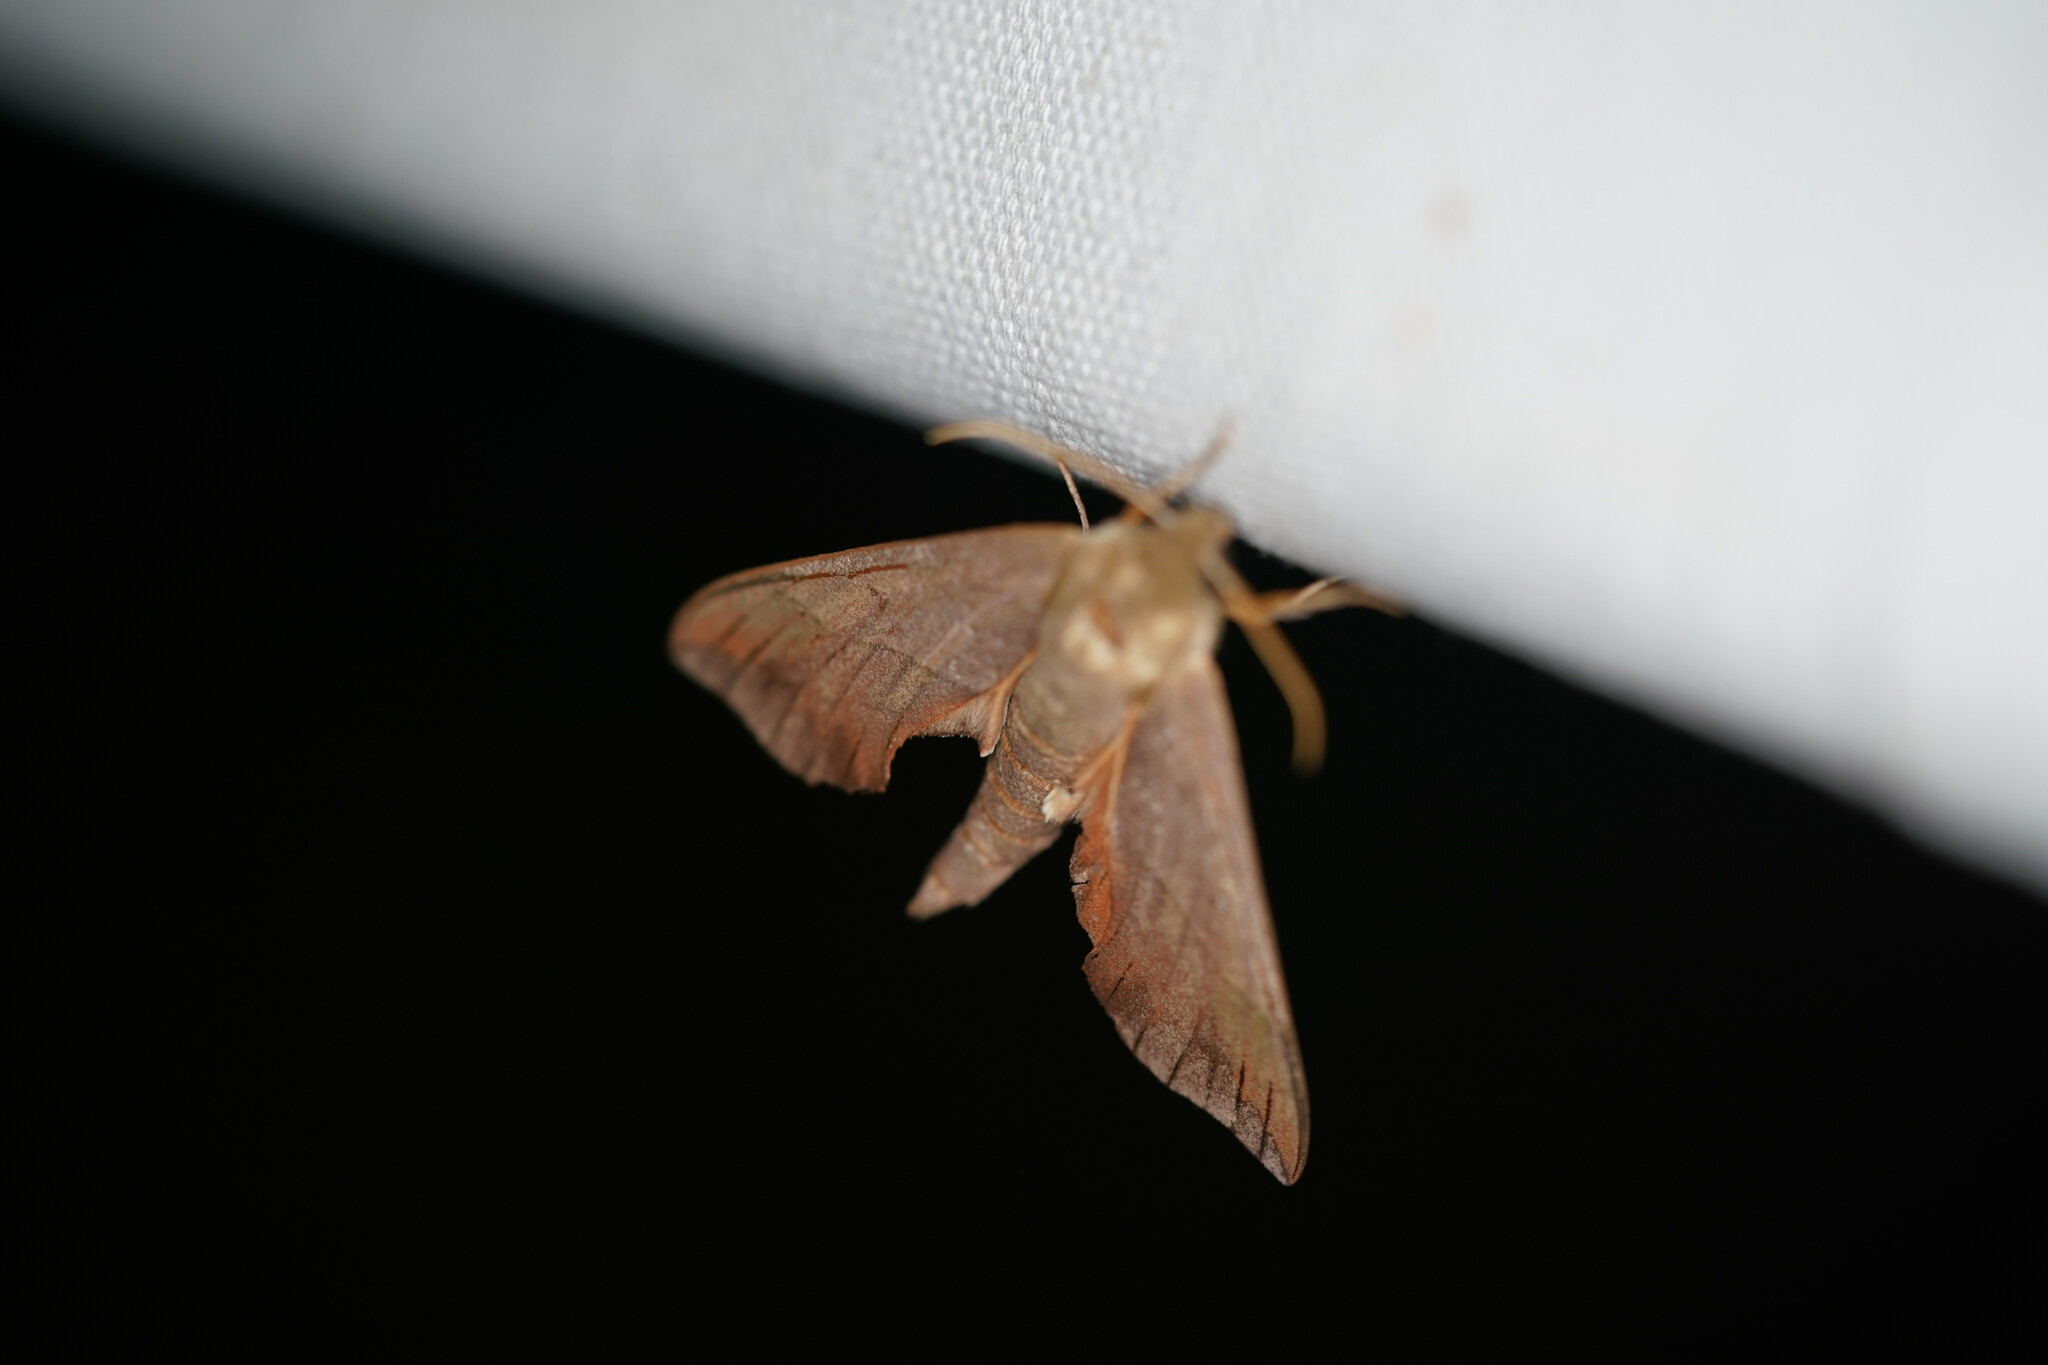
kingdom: Animalia
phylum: Arthropoda
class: Insecta
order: Lepidoptera
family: Sphingidae
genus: Darapsa
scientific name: Darapsa myron
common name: Hog sphinx
